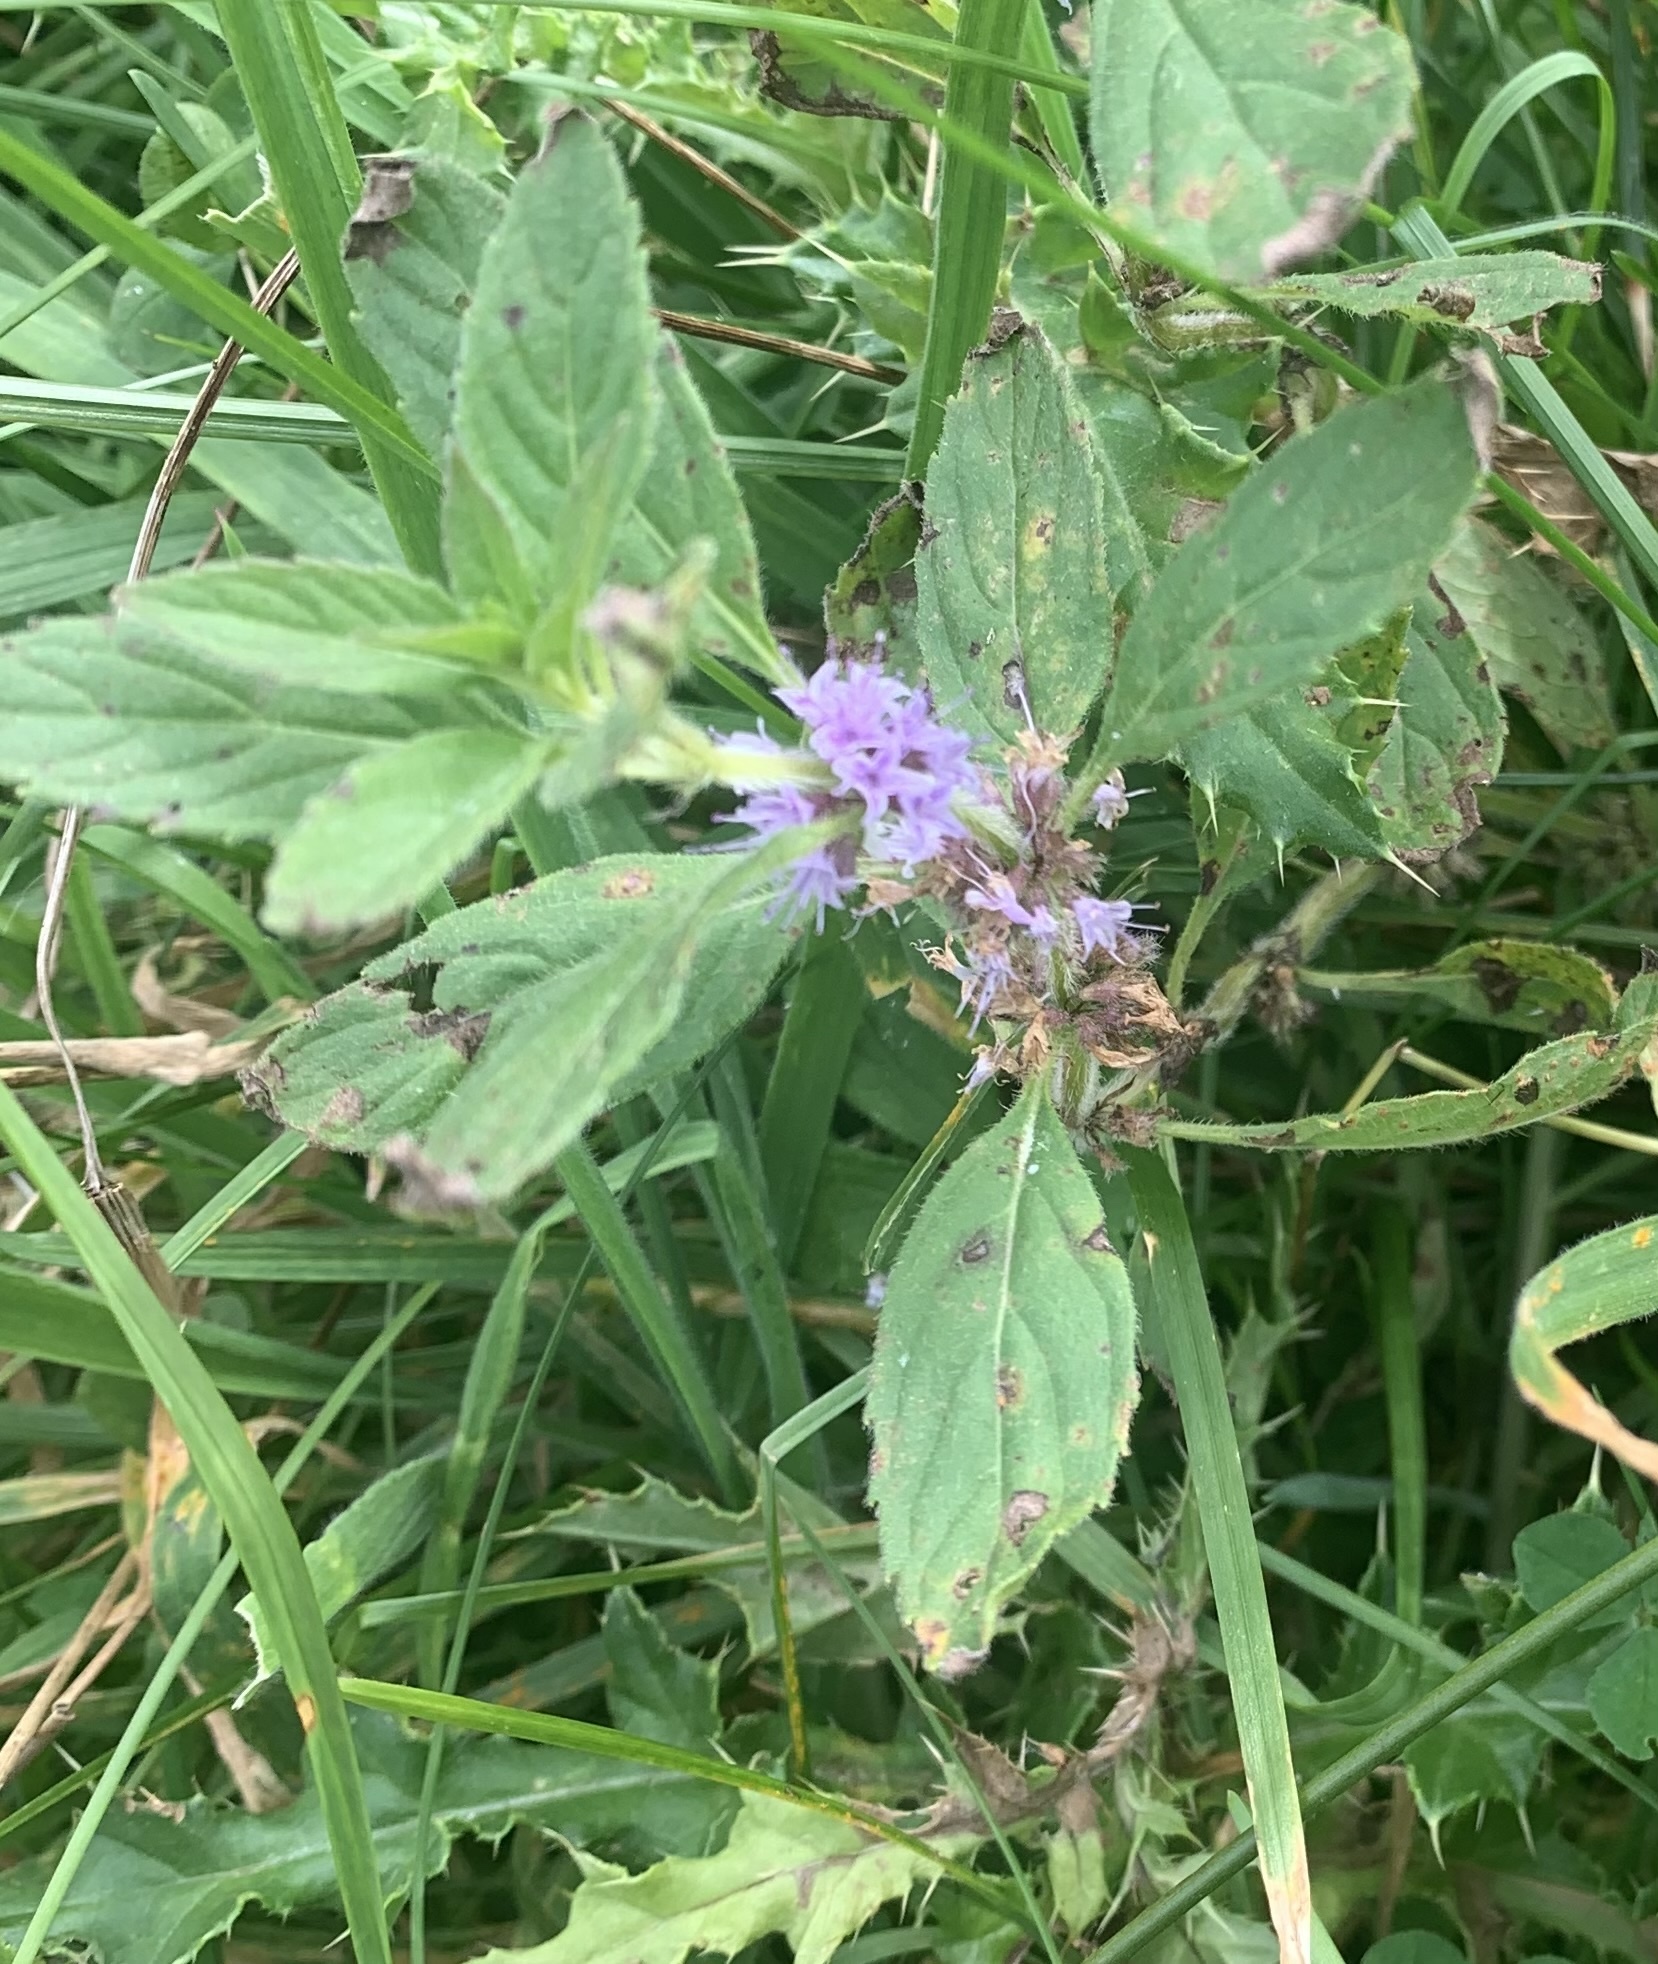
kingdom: Plantae
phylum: Tracheophyta
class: Magnoliopsida
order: Lamiales
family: Lamiaceae
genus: Mentha
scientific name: Mentha canadensis
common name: American corn mint
